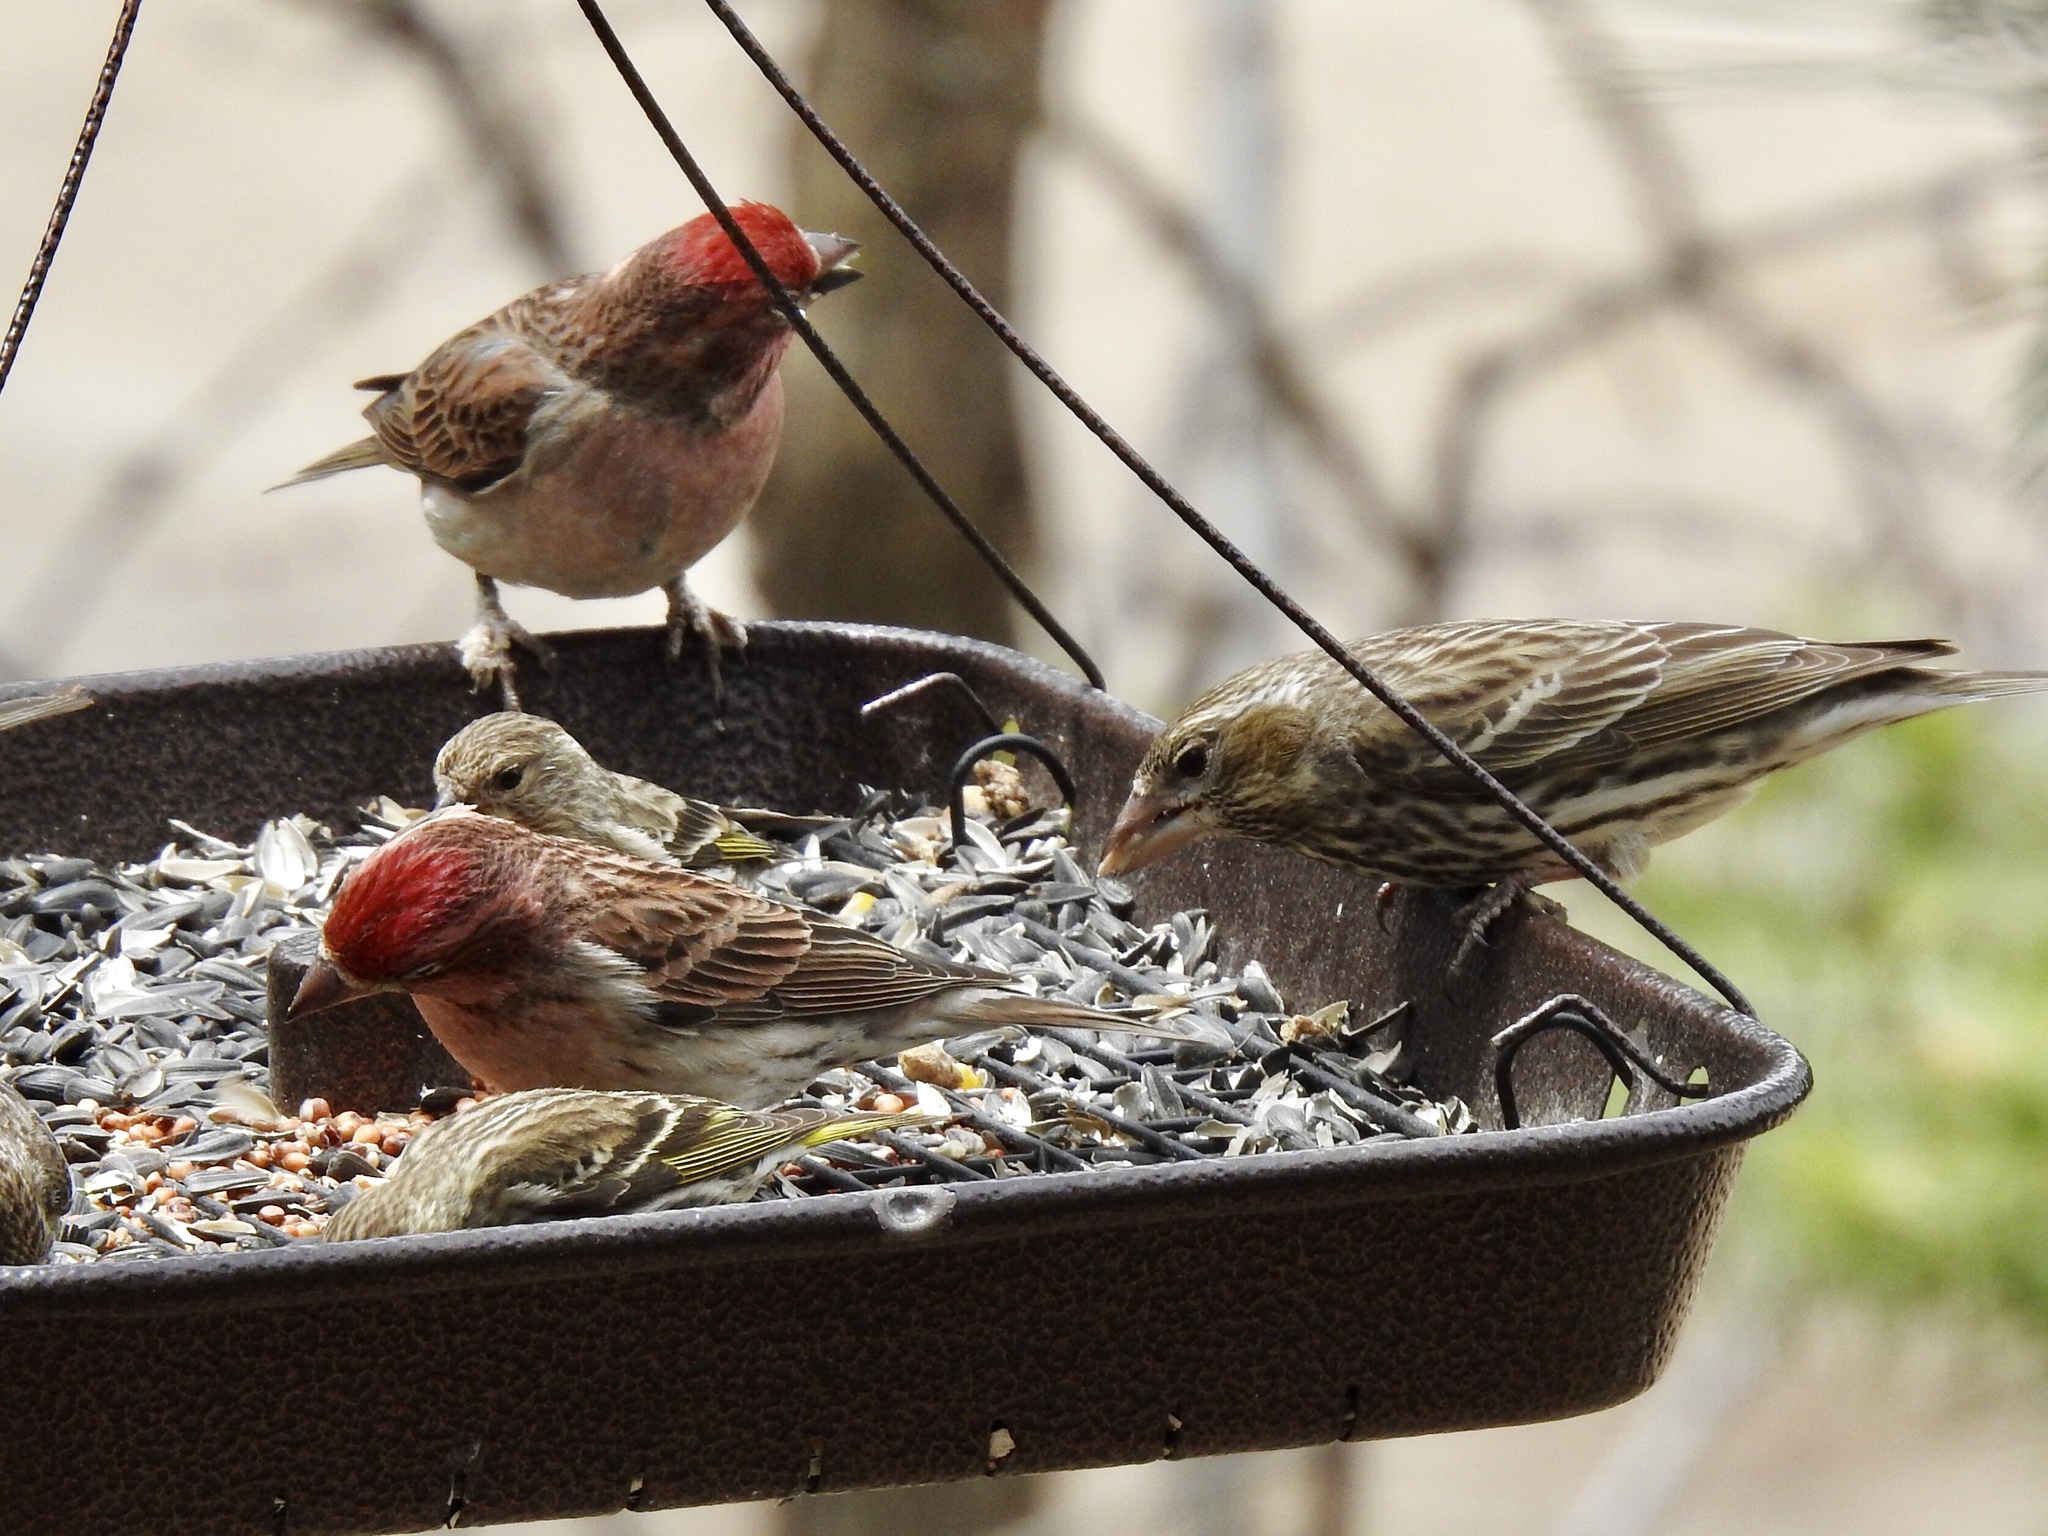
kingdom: Animalia
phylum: Chordata
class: Aves
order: Passeriformes
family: Fringillidae
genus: Haemorhous
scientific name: Haemorhous cassinii
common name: Cassin's finch
